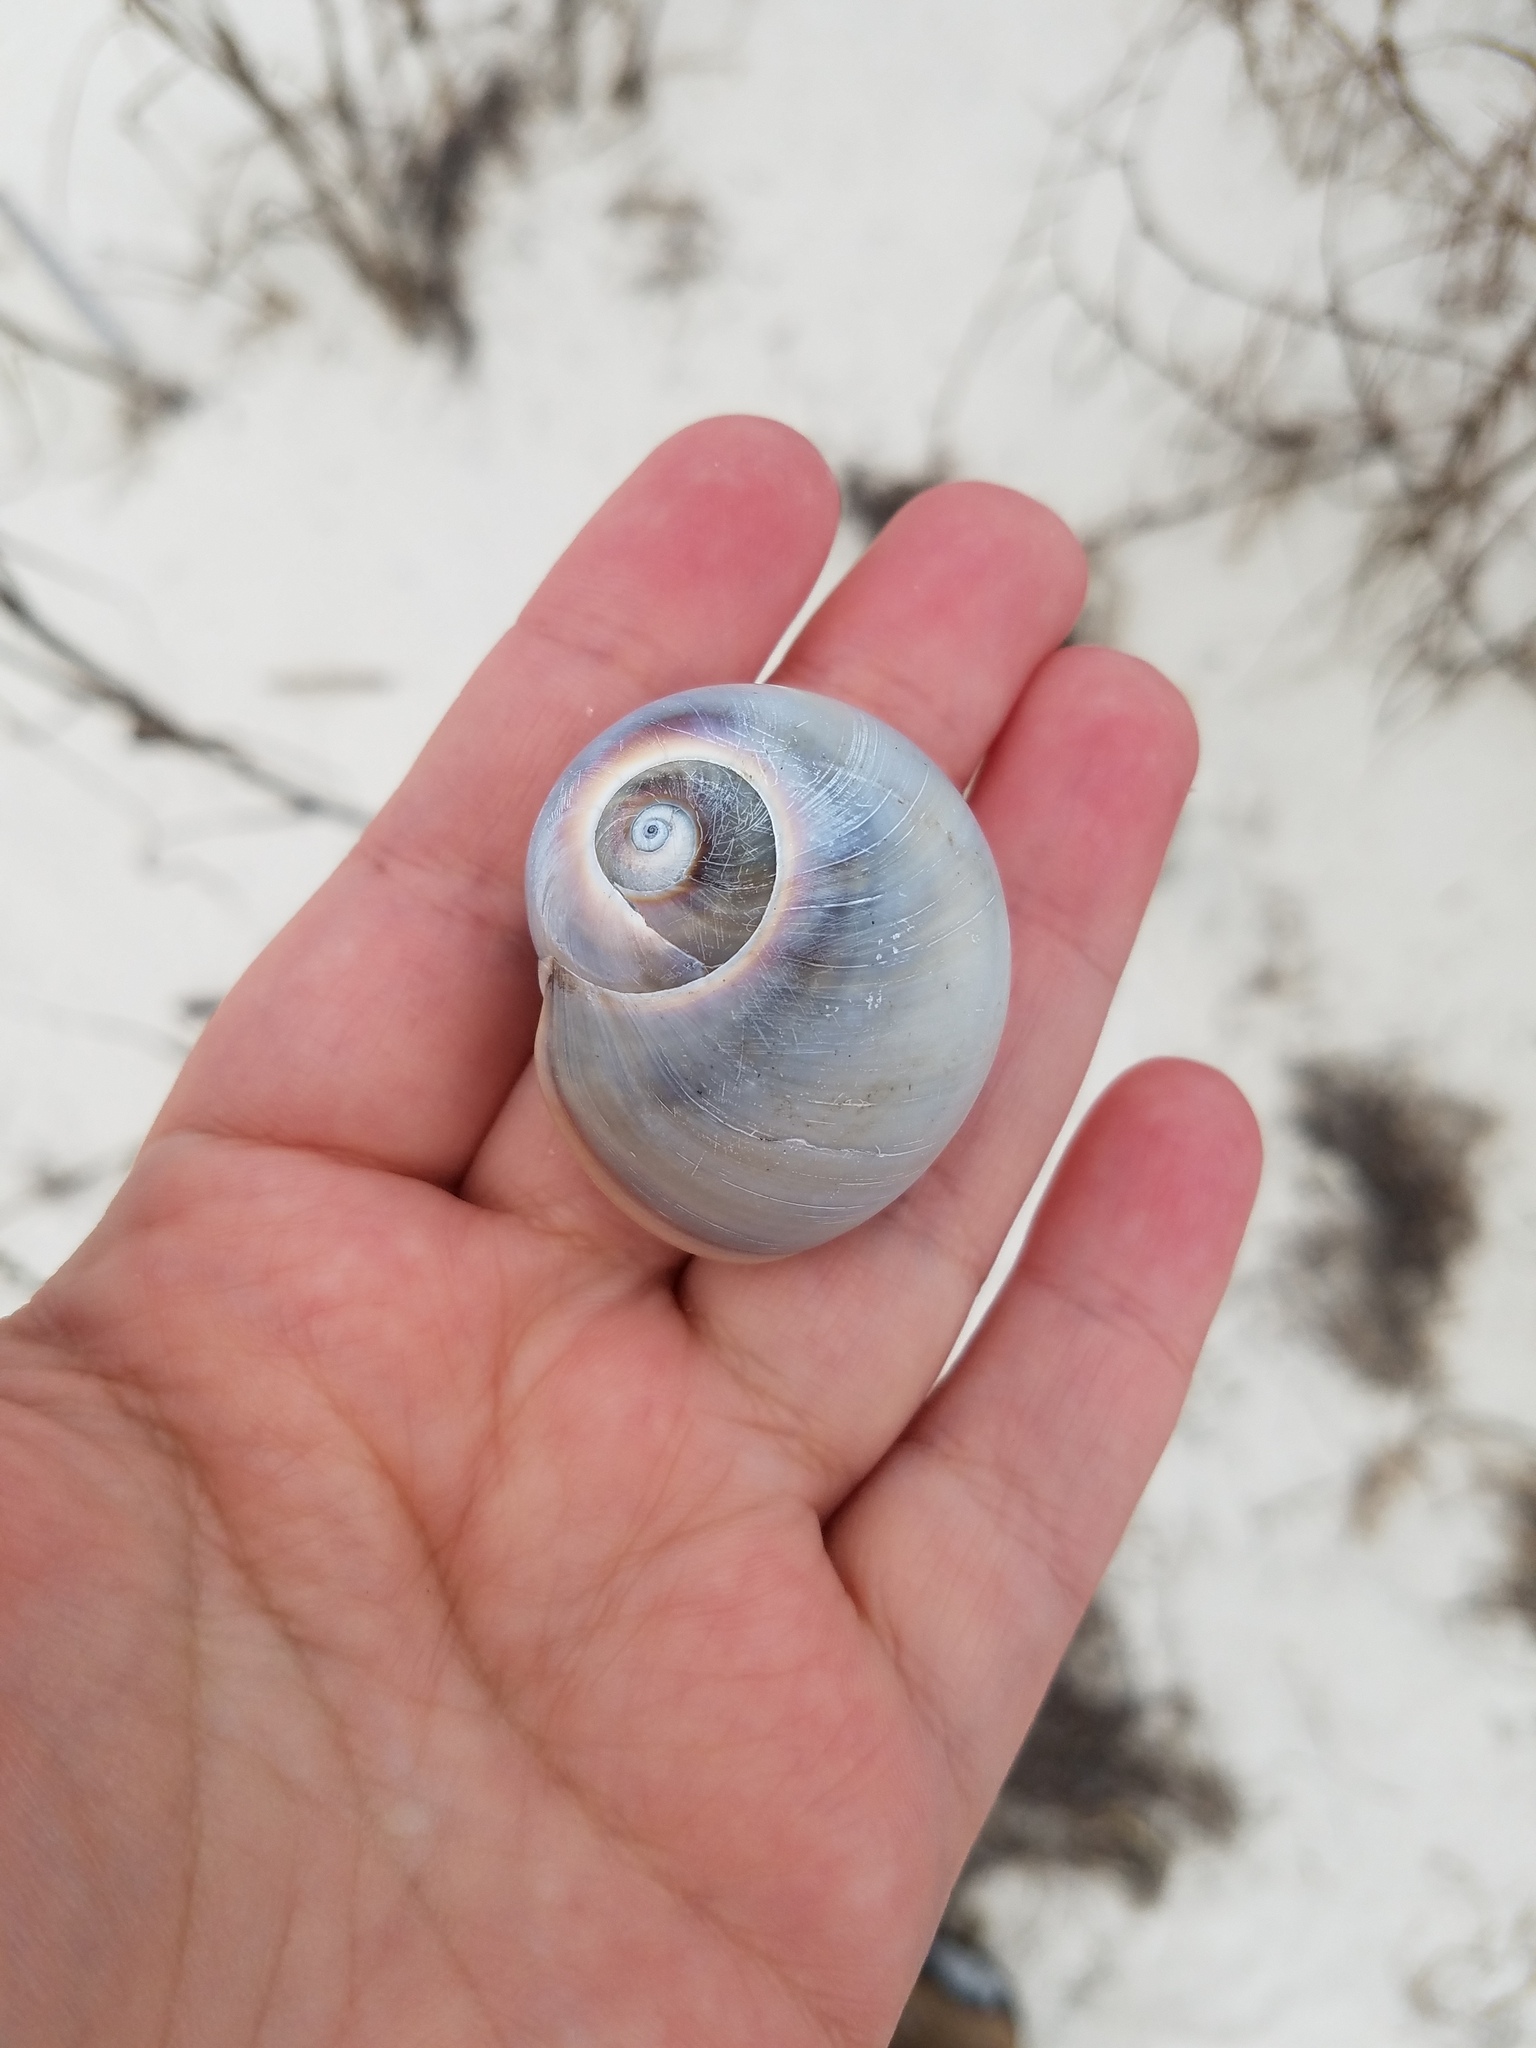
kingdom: Animalia
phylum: Mollusca
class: Gastropoda
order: Littorinimorpha
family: Naticidae
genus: Neverita
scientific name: Neverita delessertiana
